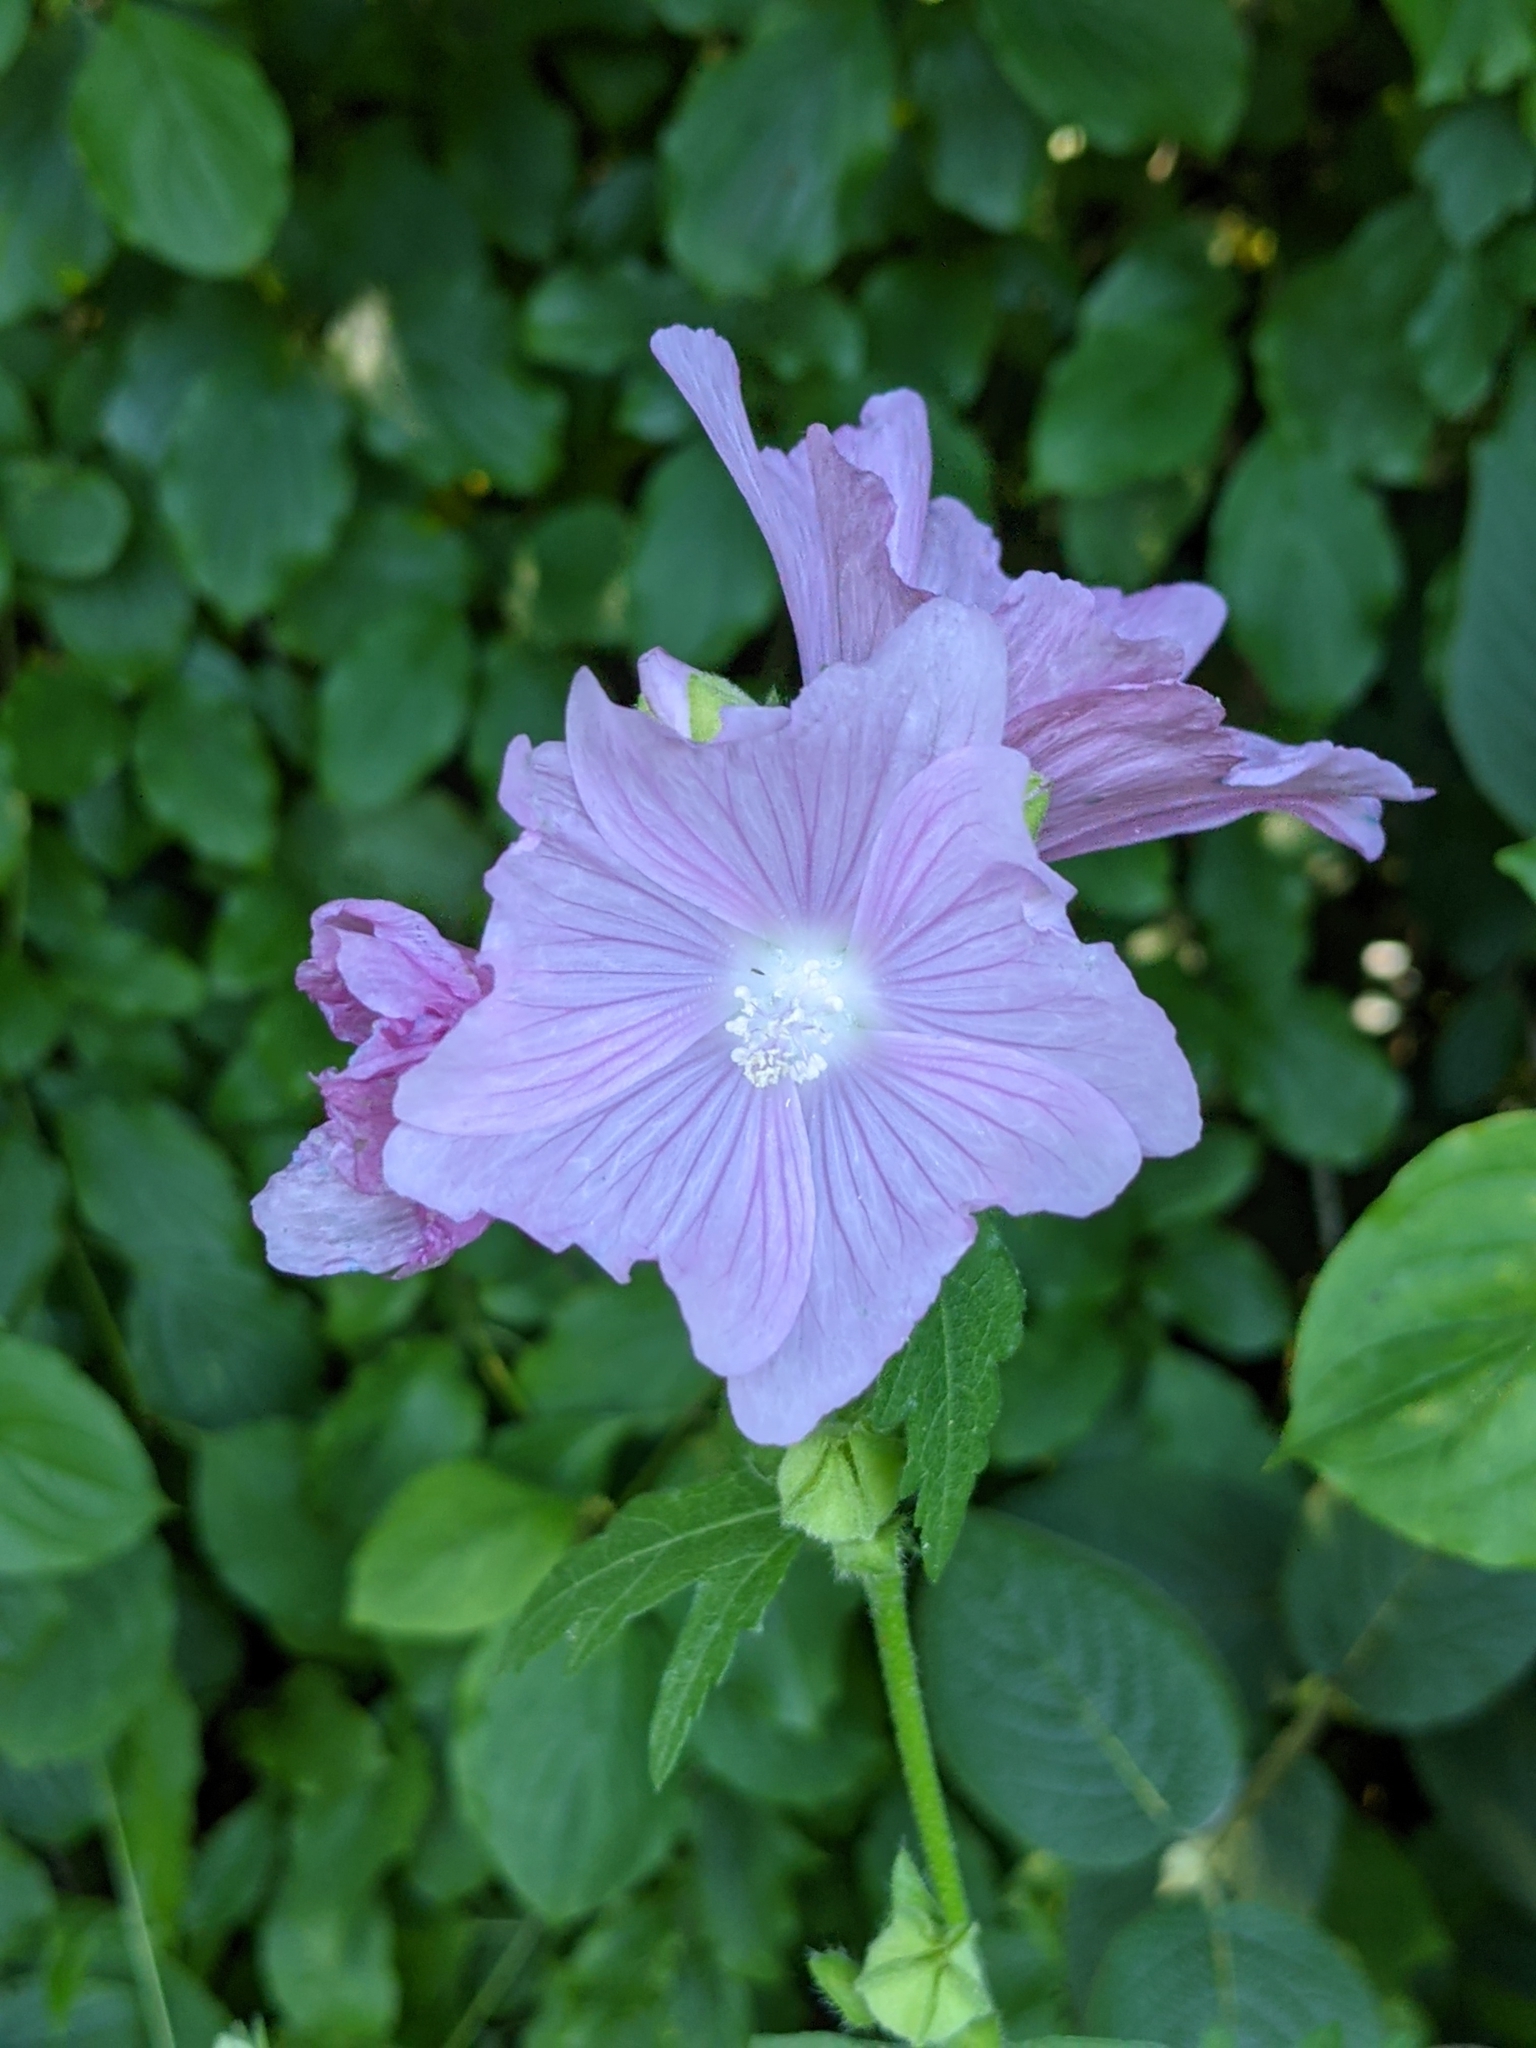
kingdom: Plantae
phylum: Tracheophyta
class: Magnoliopsida
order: Malvales
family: Malvaceae
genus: Malva
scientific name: Malva alcea
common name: Greater musk-mallow
